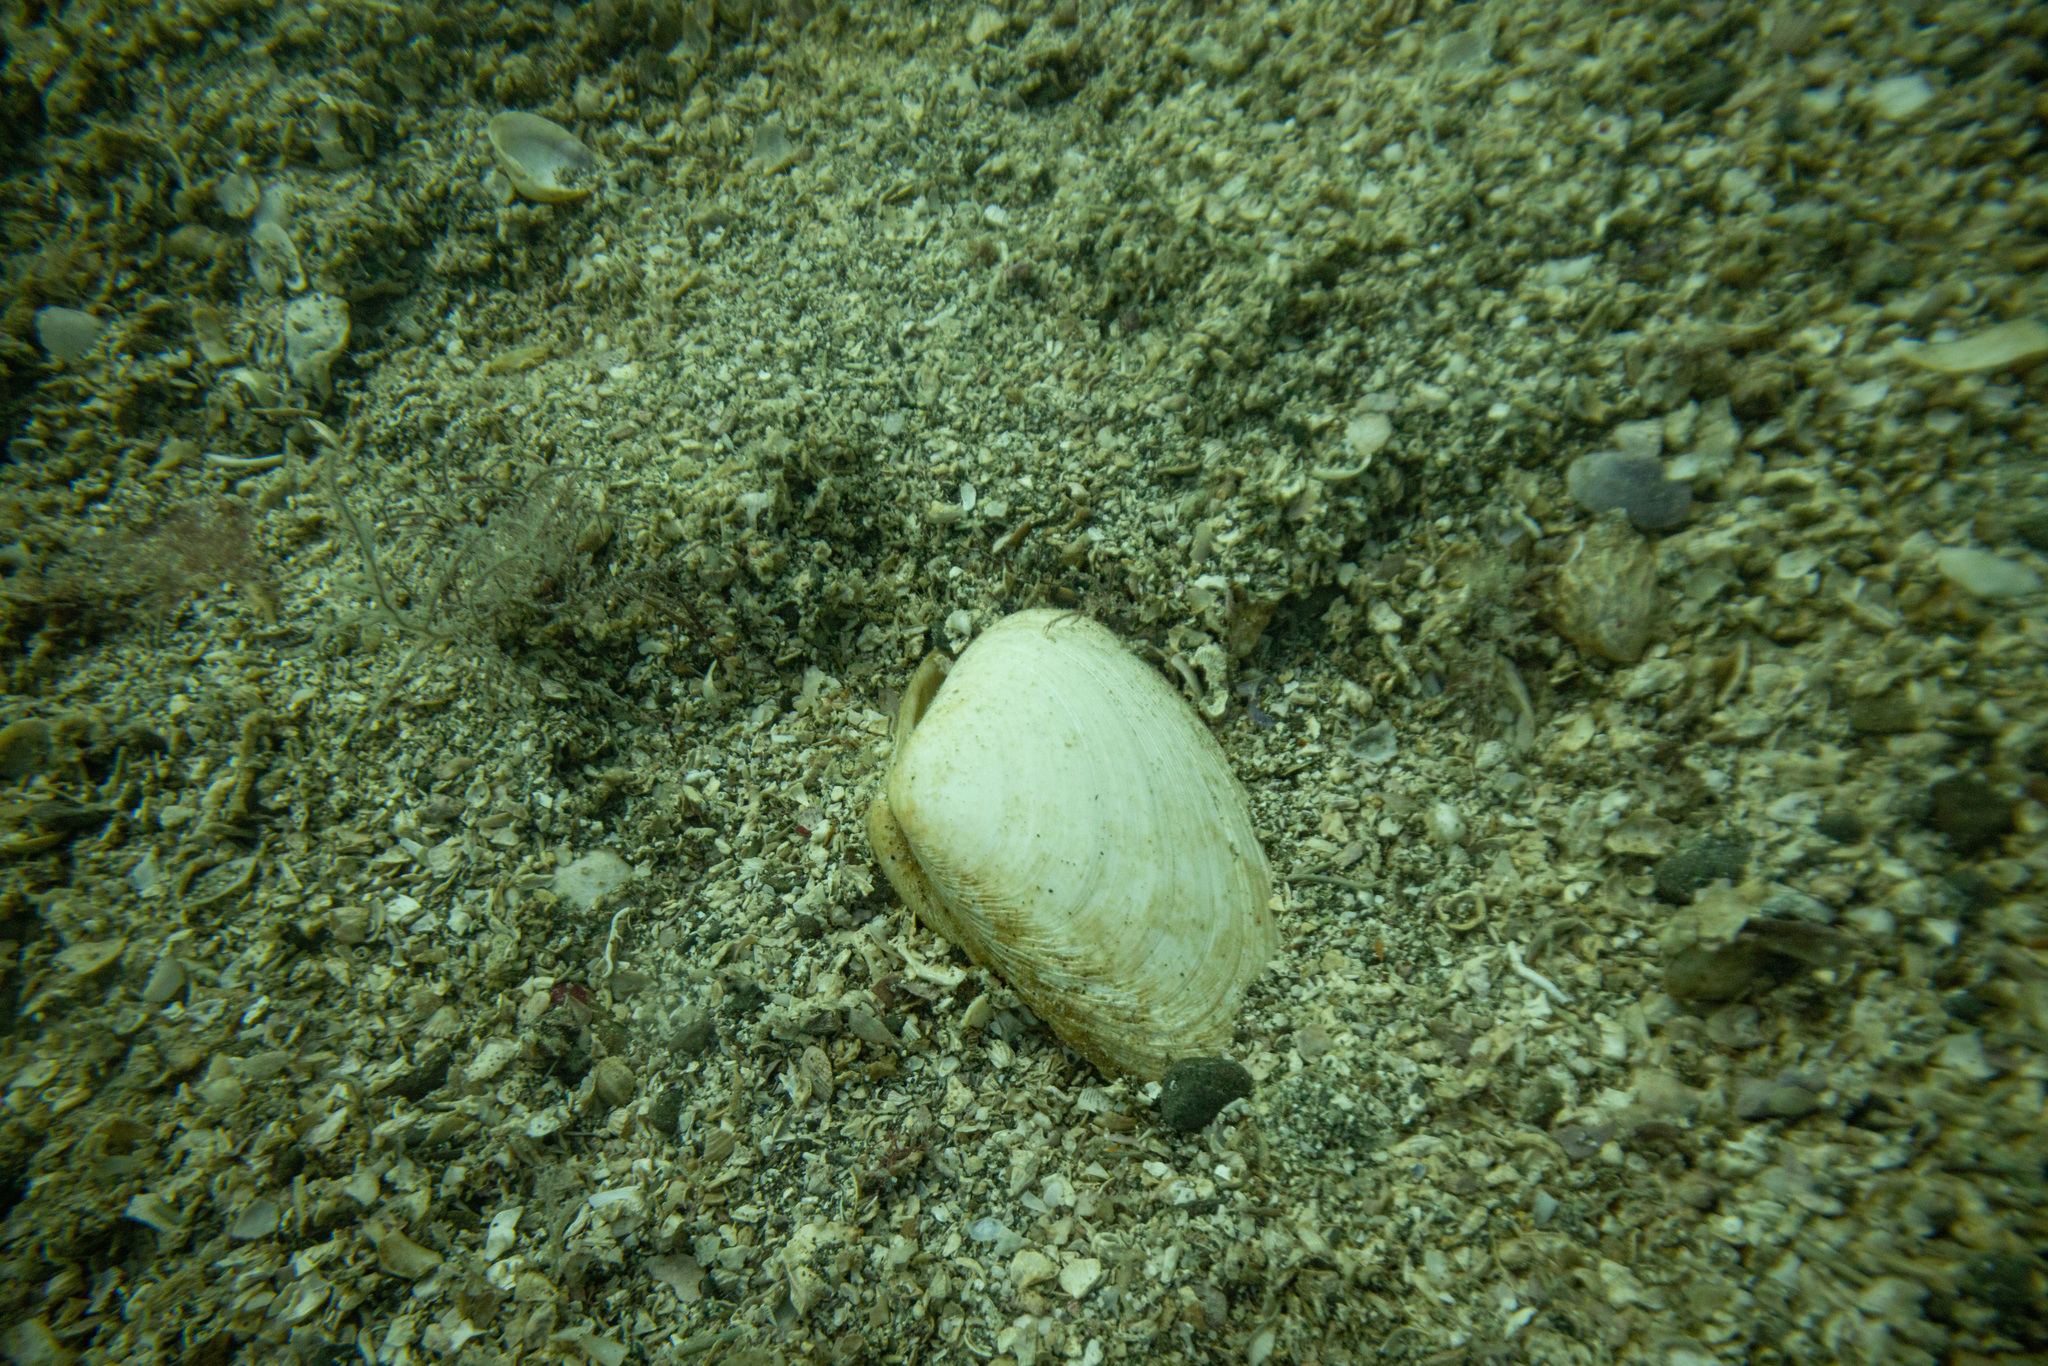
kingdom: Animalia
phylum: Mollusca
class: Bivalvia
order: Venerida
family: Mactridae
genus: Oxyperas
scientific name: Oxyperas elongatum
